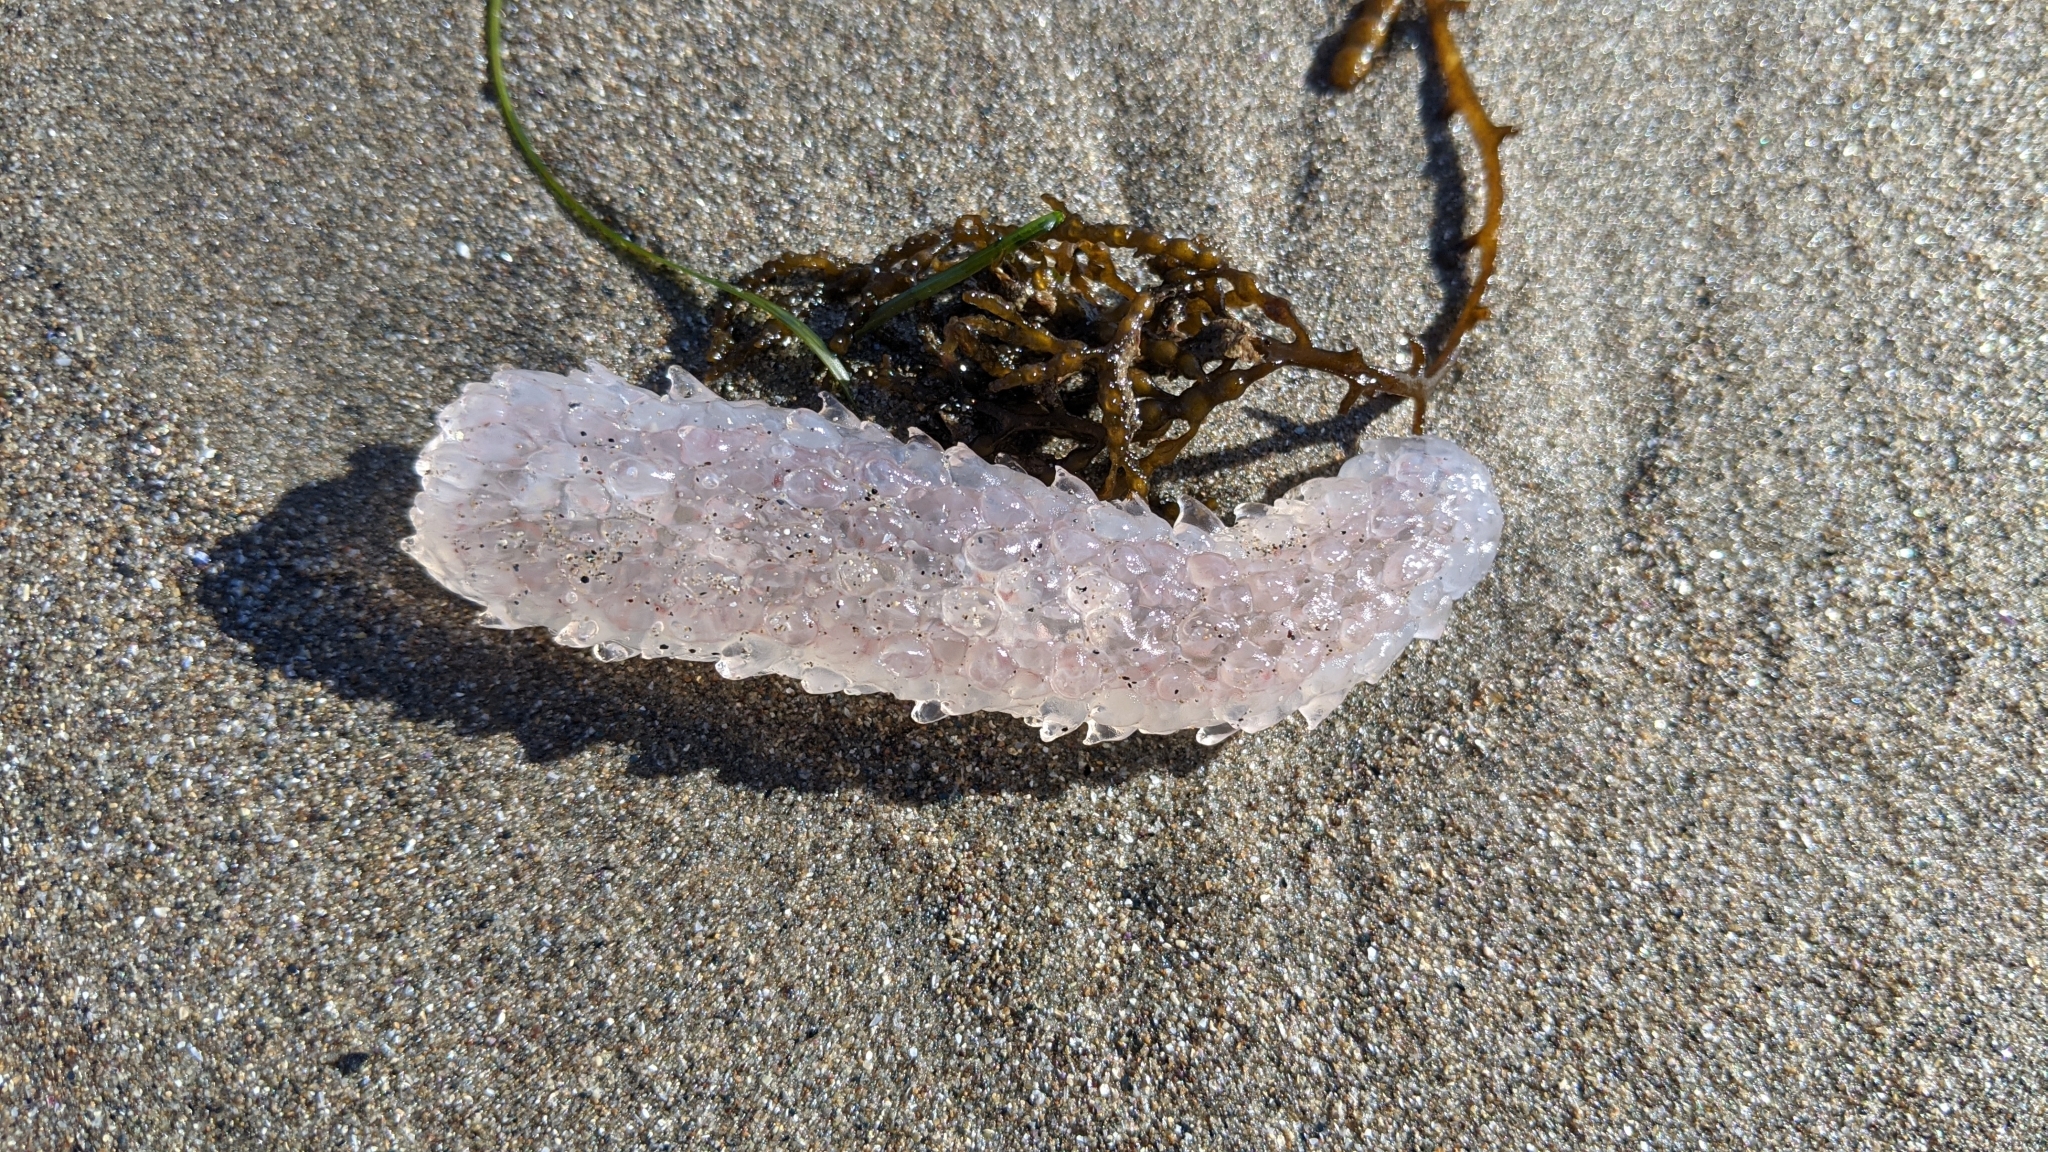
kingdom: Animalia
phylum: Chordata
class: Thaliacea
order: Pyrosomatida
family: Pyrosomatidae
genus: Pyrosoma
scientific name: Pyrosoma atlanticum
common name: Atlantic pyrosomes
